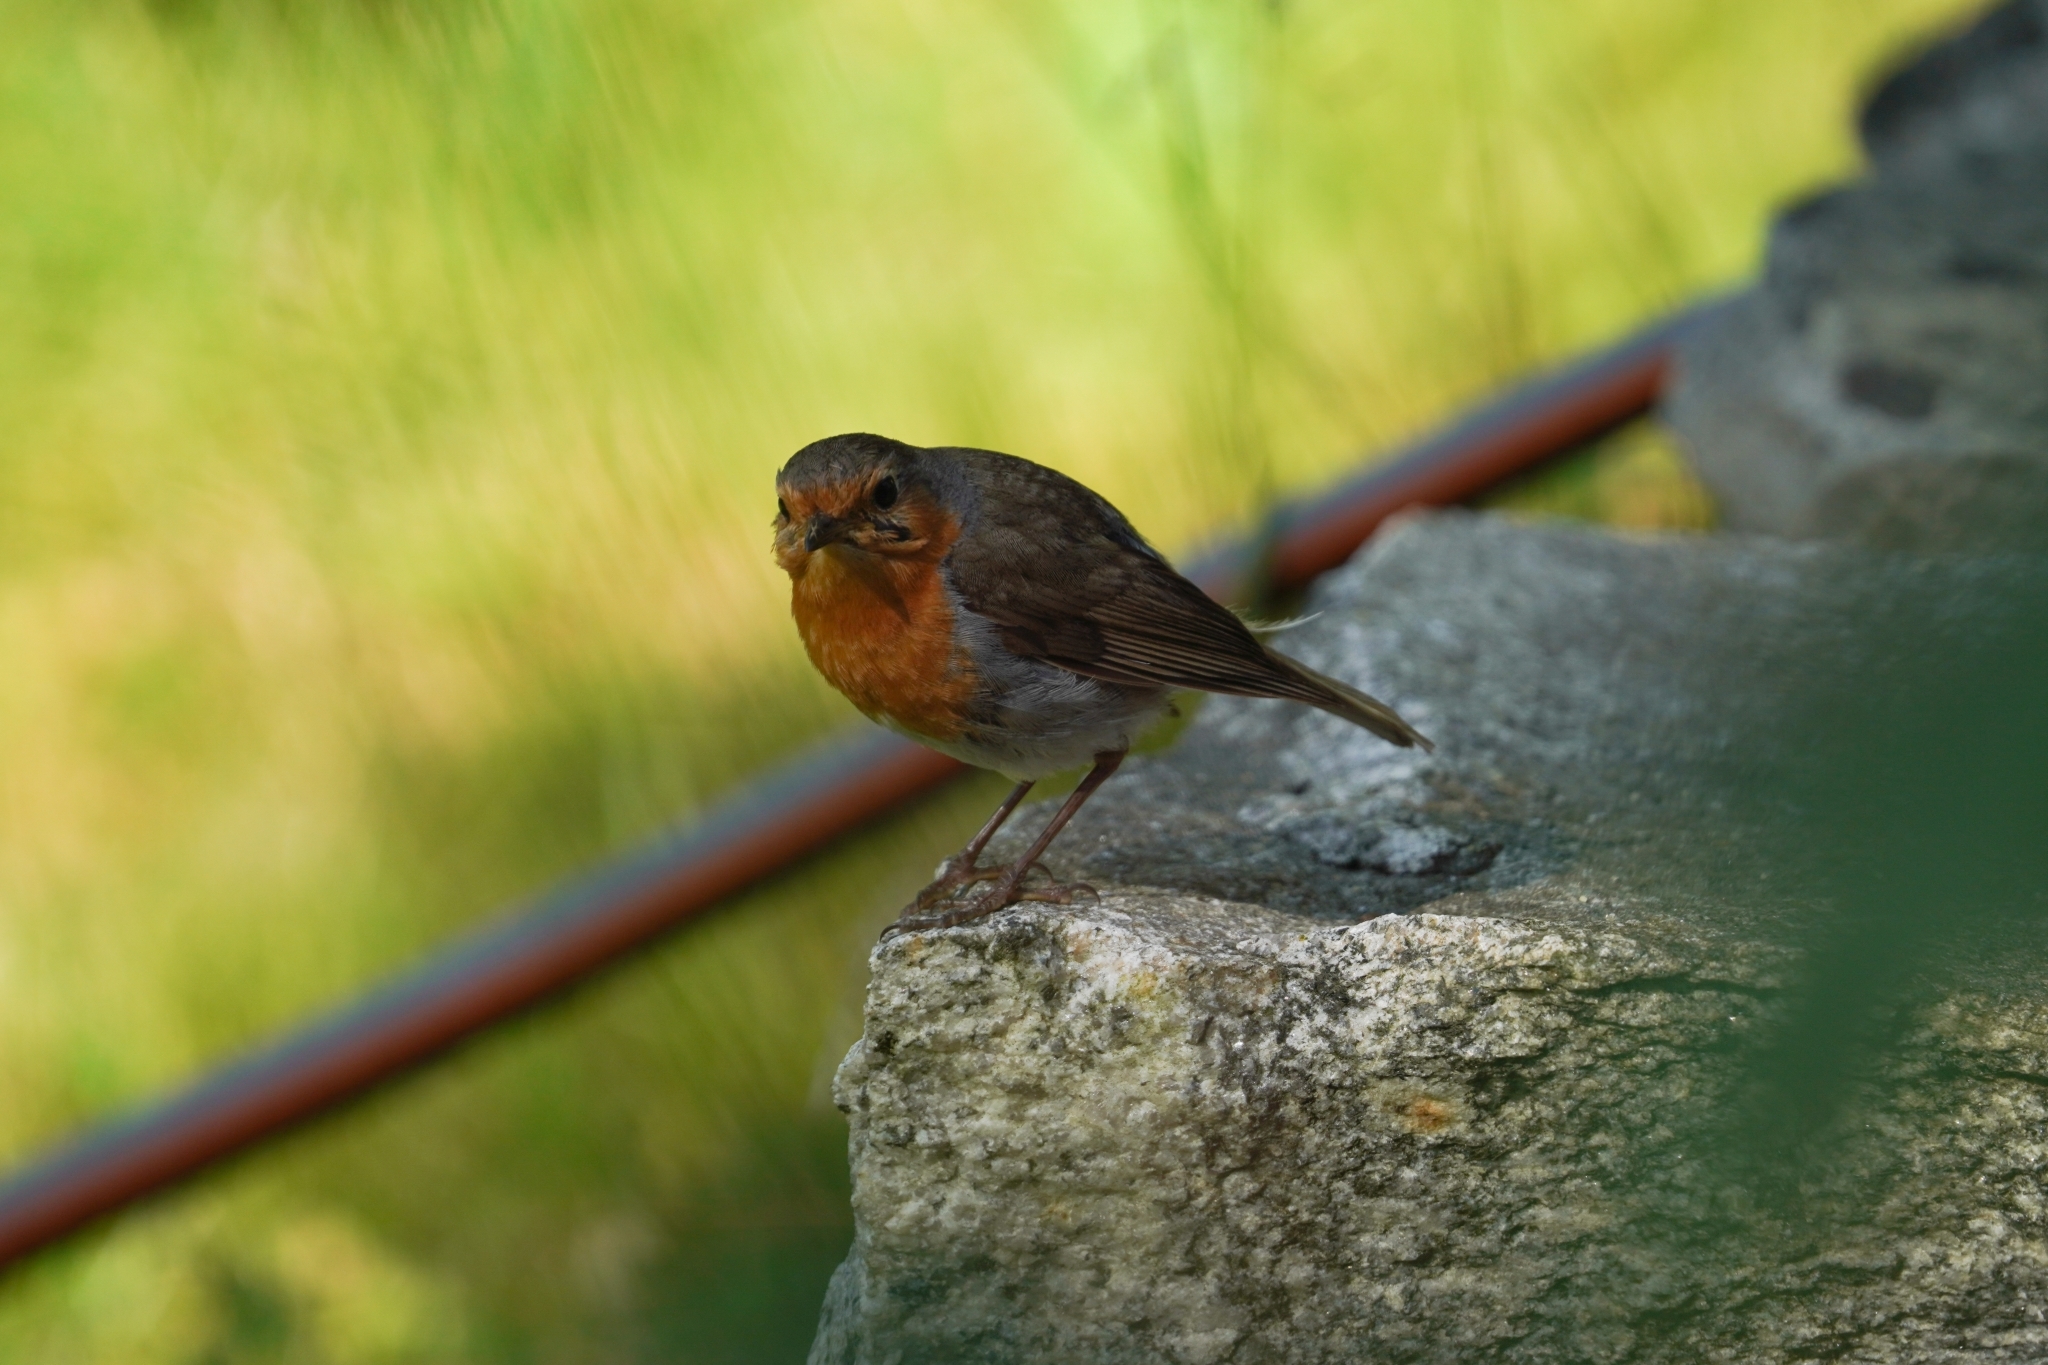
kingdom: Animalia
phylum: Chordata
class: Aves
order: Passeriformes
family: Muscicapidae
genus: Erithacus
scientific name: Erithacus rubecula
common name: European robin
